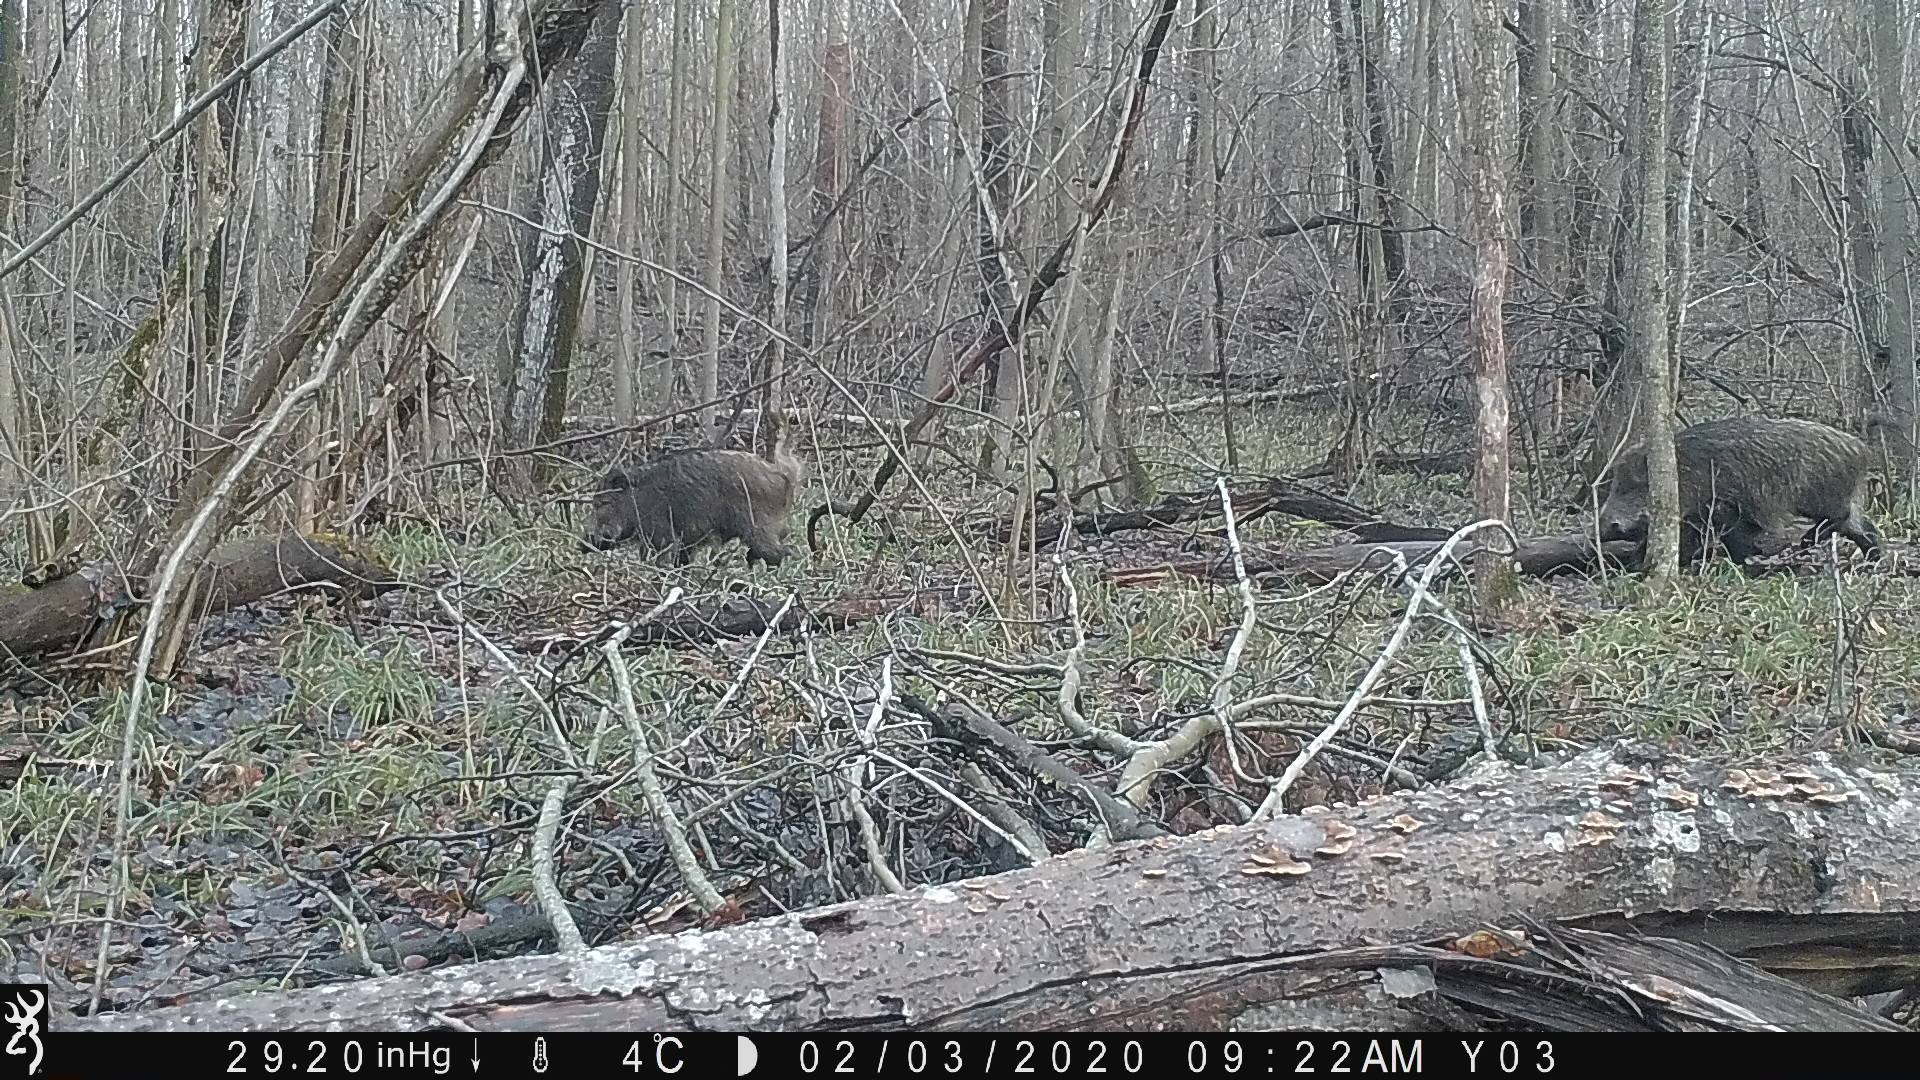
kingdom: Animalia
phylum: Chordata
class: Mammalia
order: Artiodactyla
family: Suidae
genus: Sus
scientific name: Sus scrofa
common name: Wild boar
